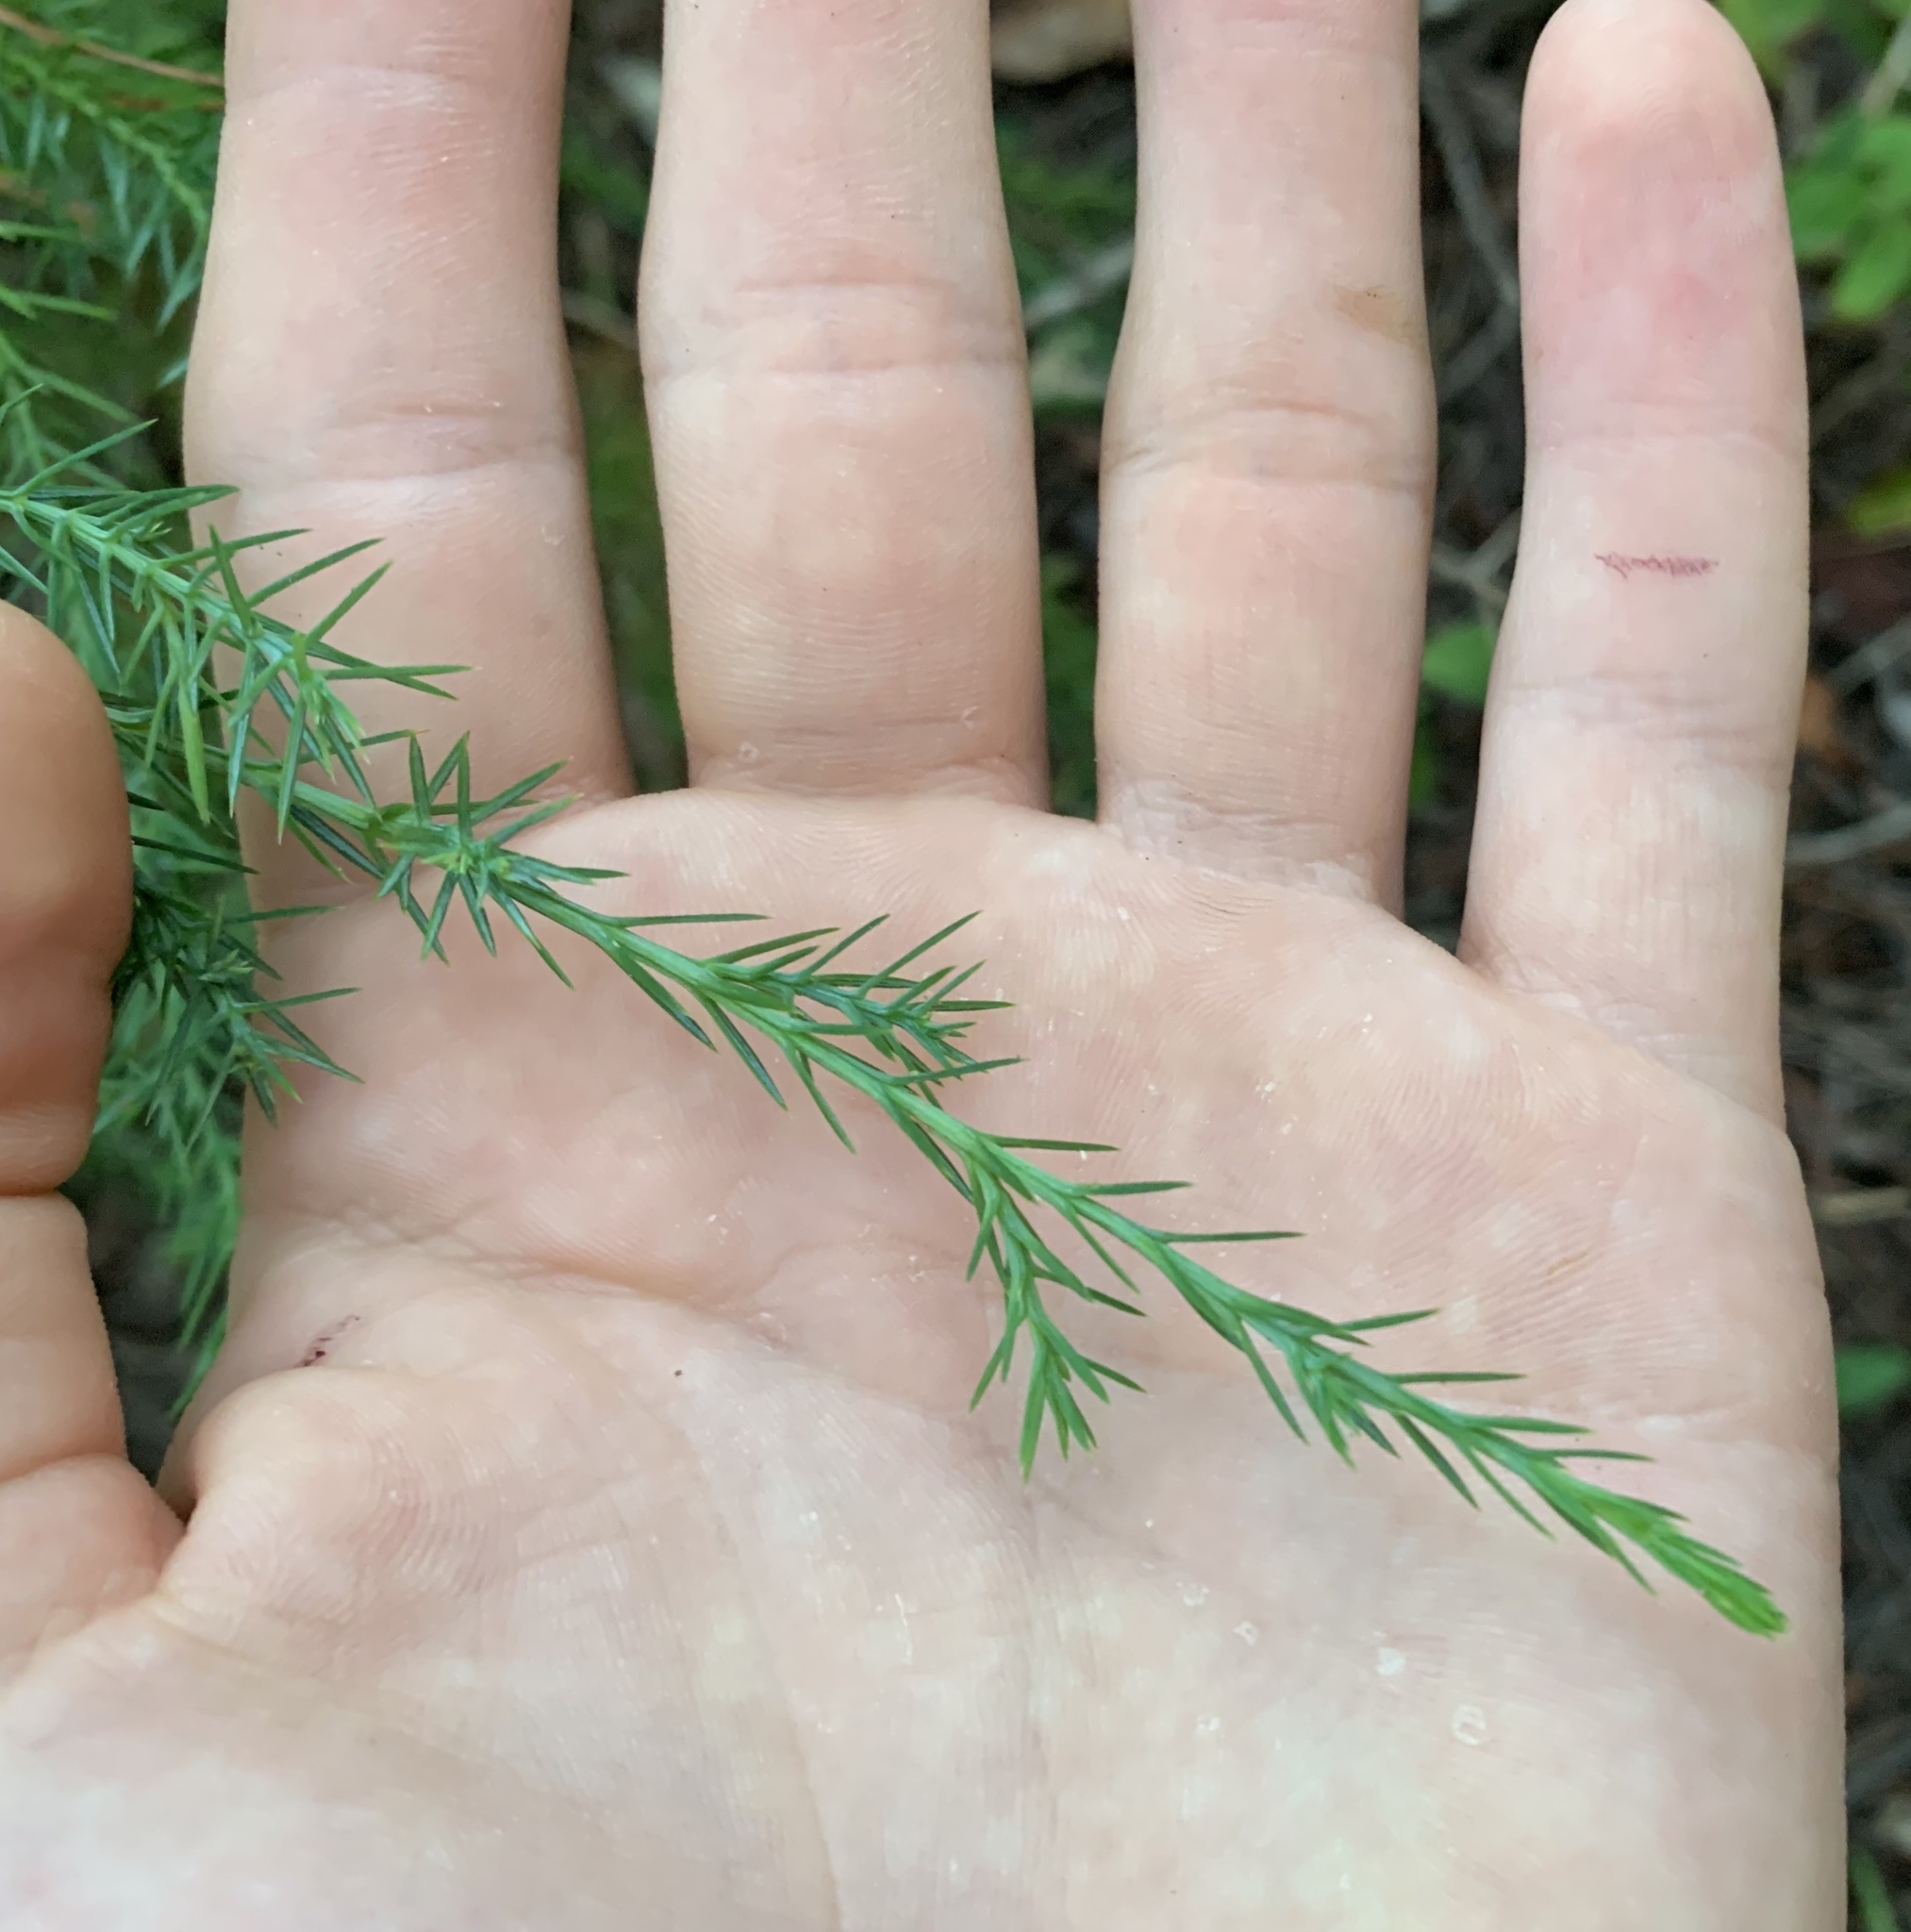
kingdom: Plantae
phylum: Tracheophyta
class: Pinopsida
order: Pinales
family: Cupressaceae
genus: Juniperus
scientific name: Juniperus virginiana
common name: Red juniper
